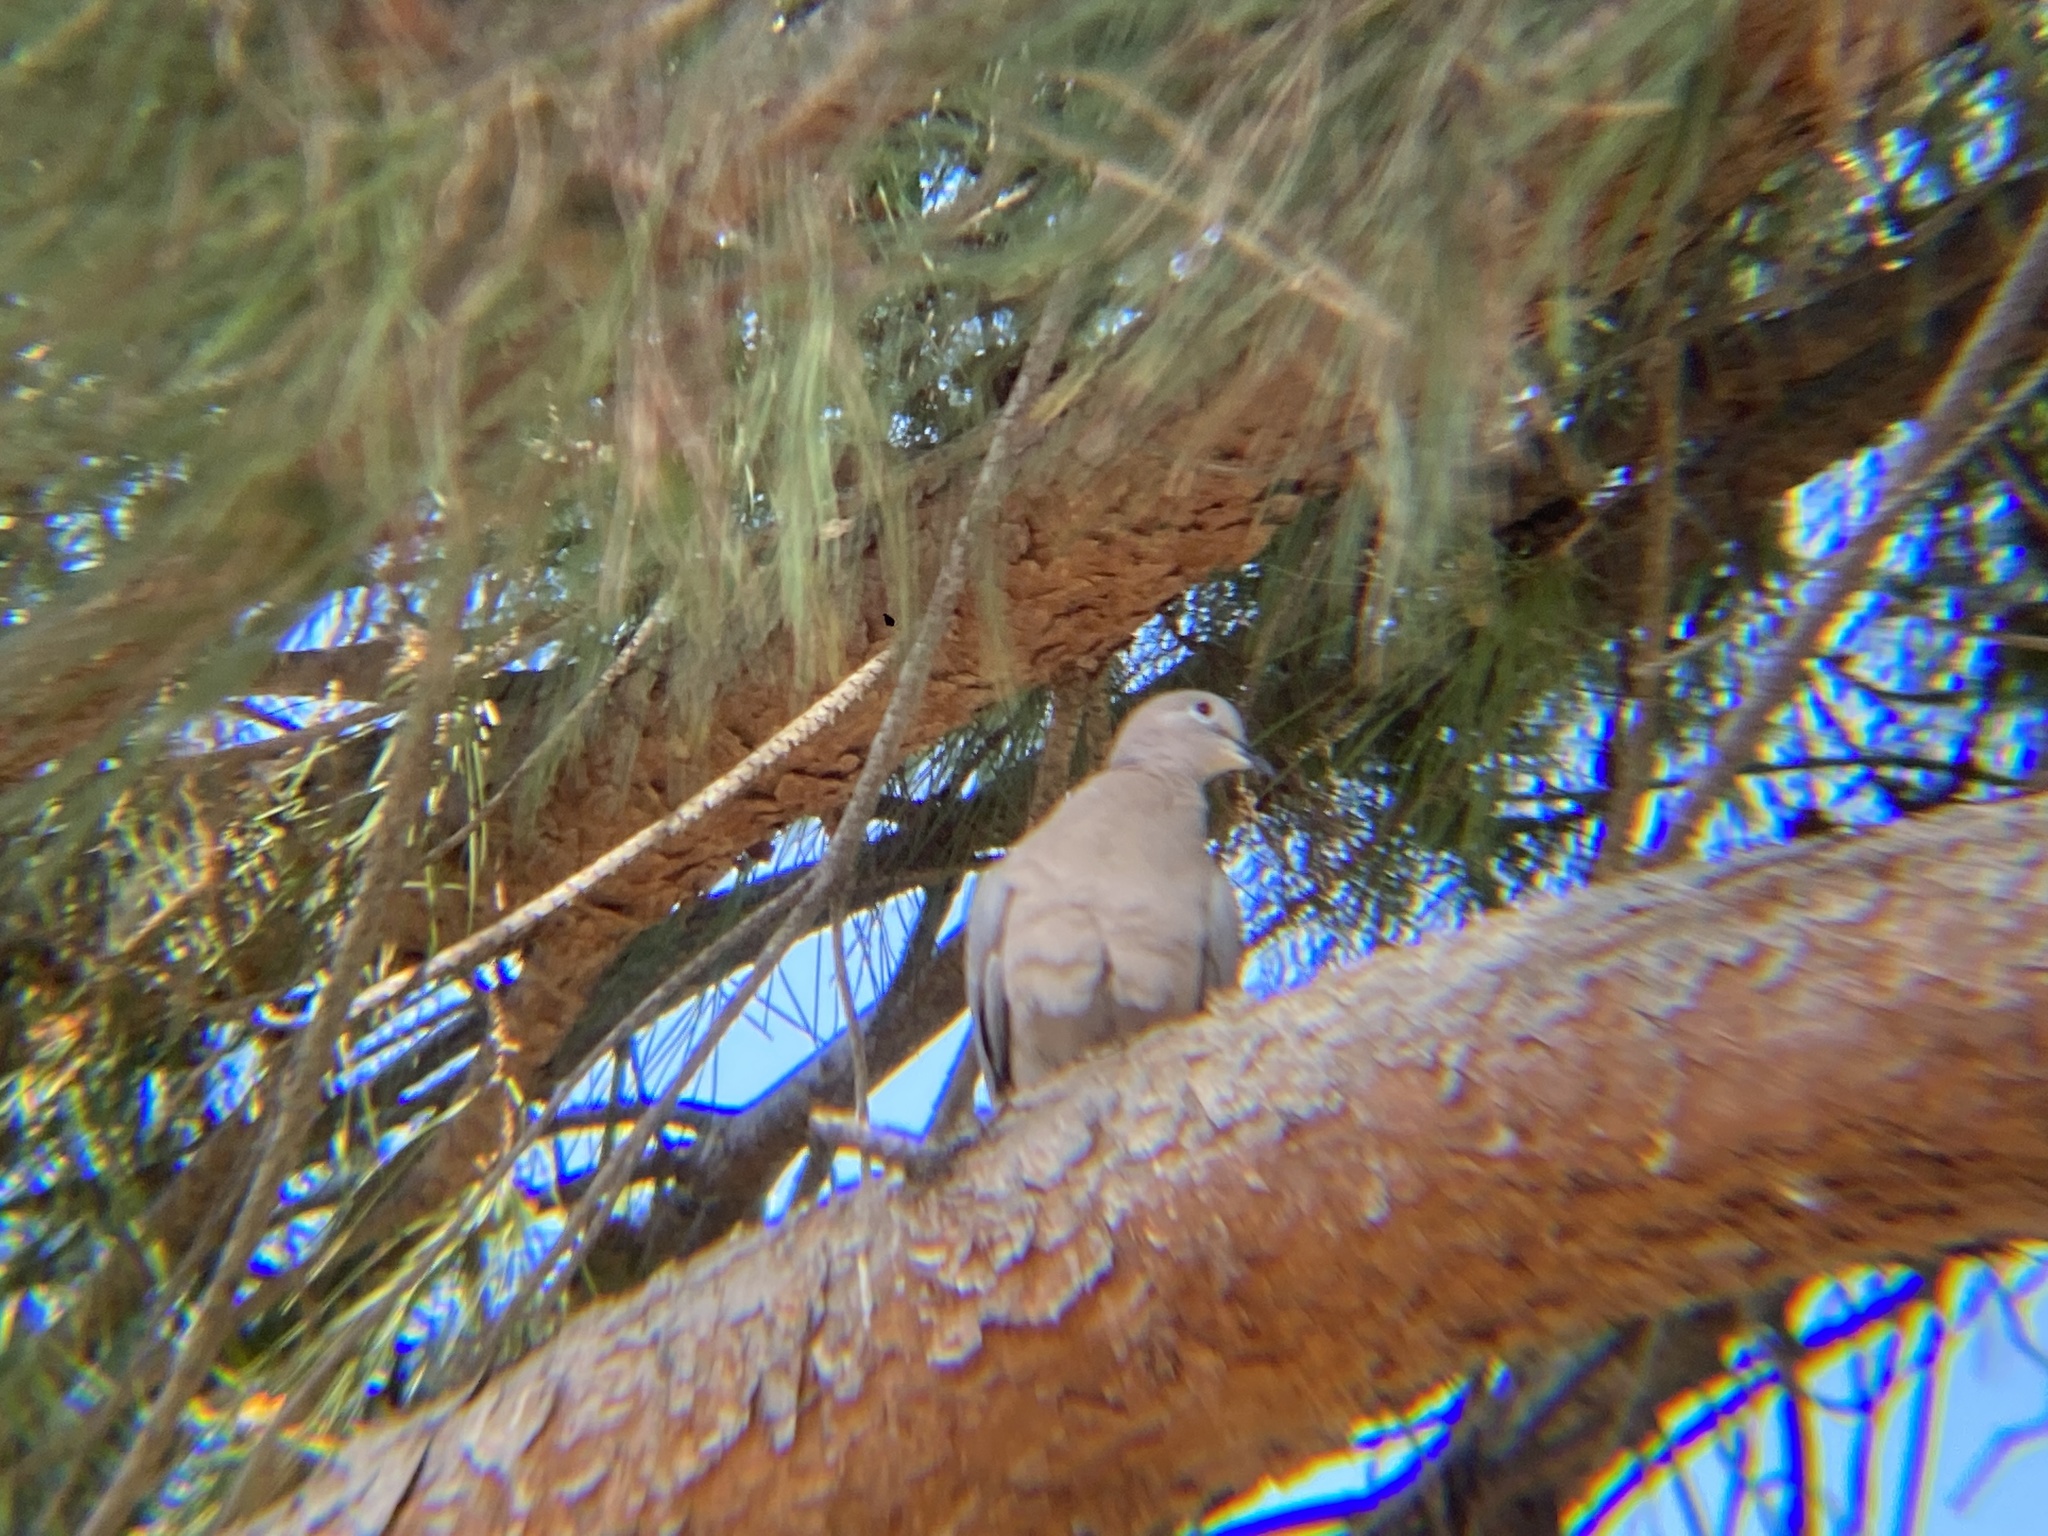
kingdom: Animalia
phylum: Chordata
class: Aves
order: Columbiformes
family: Columbidae
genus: Streptopelia
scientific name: Streptopelia decaocto
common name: Eurasian collared dove
